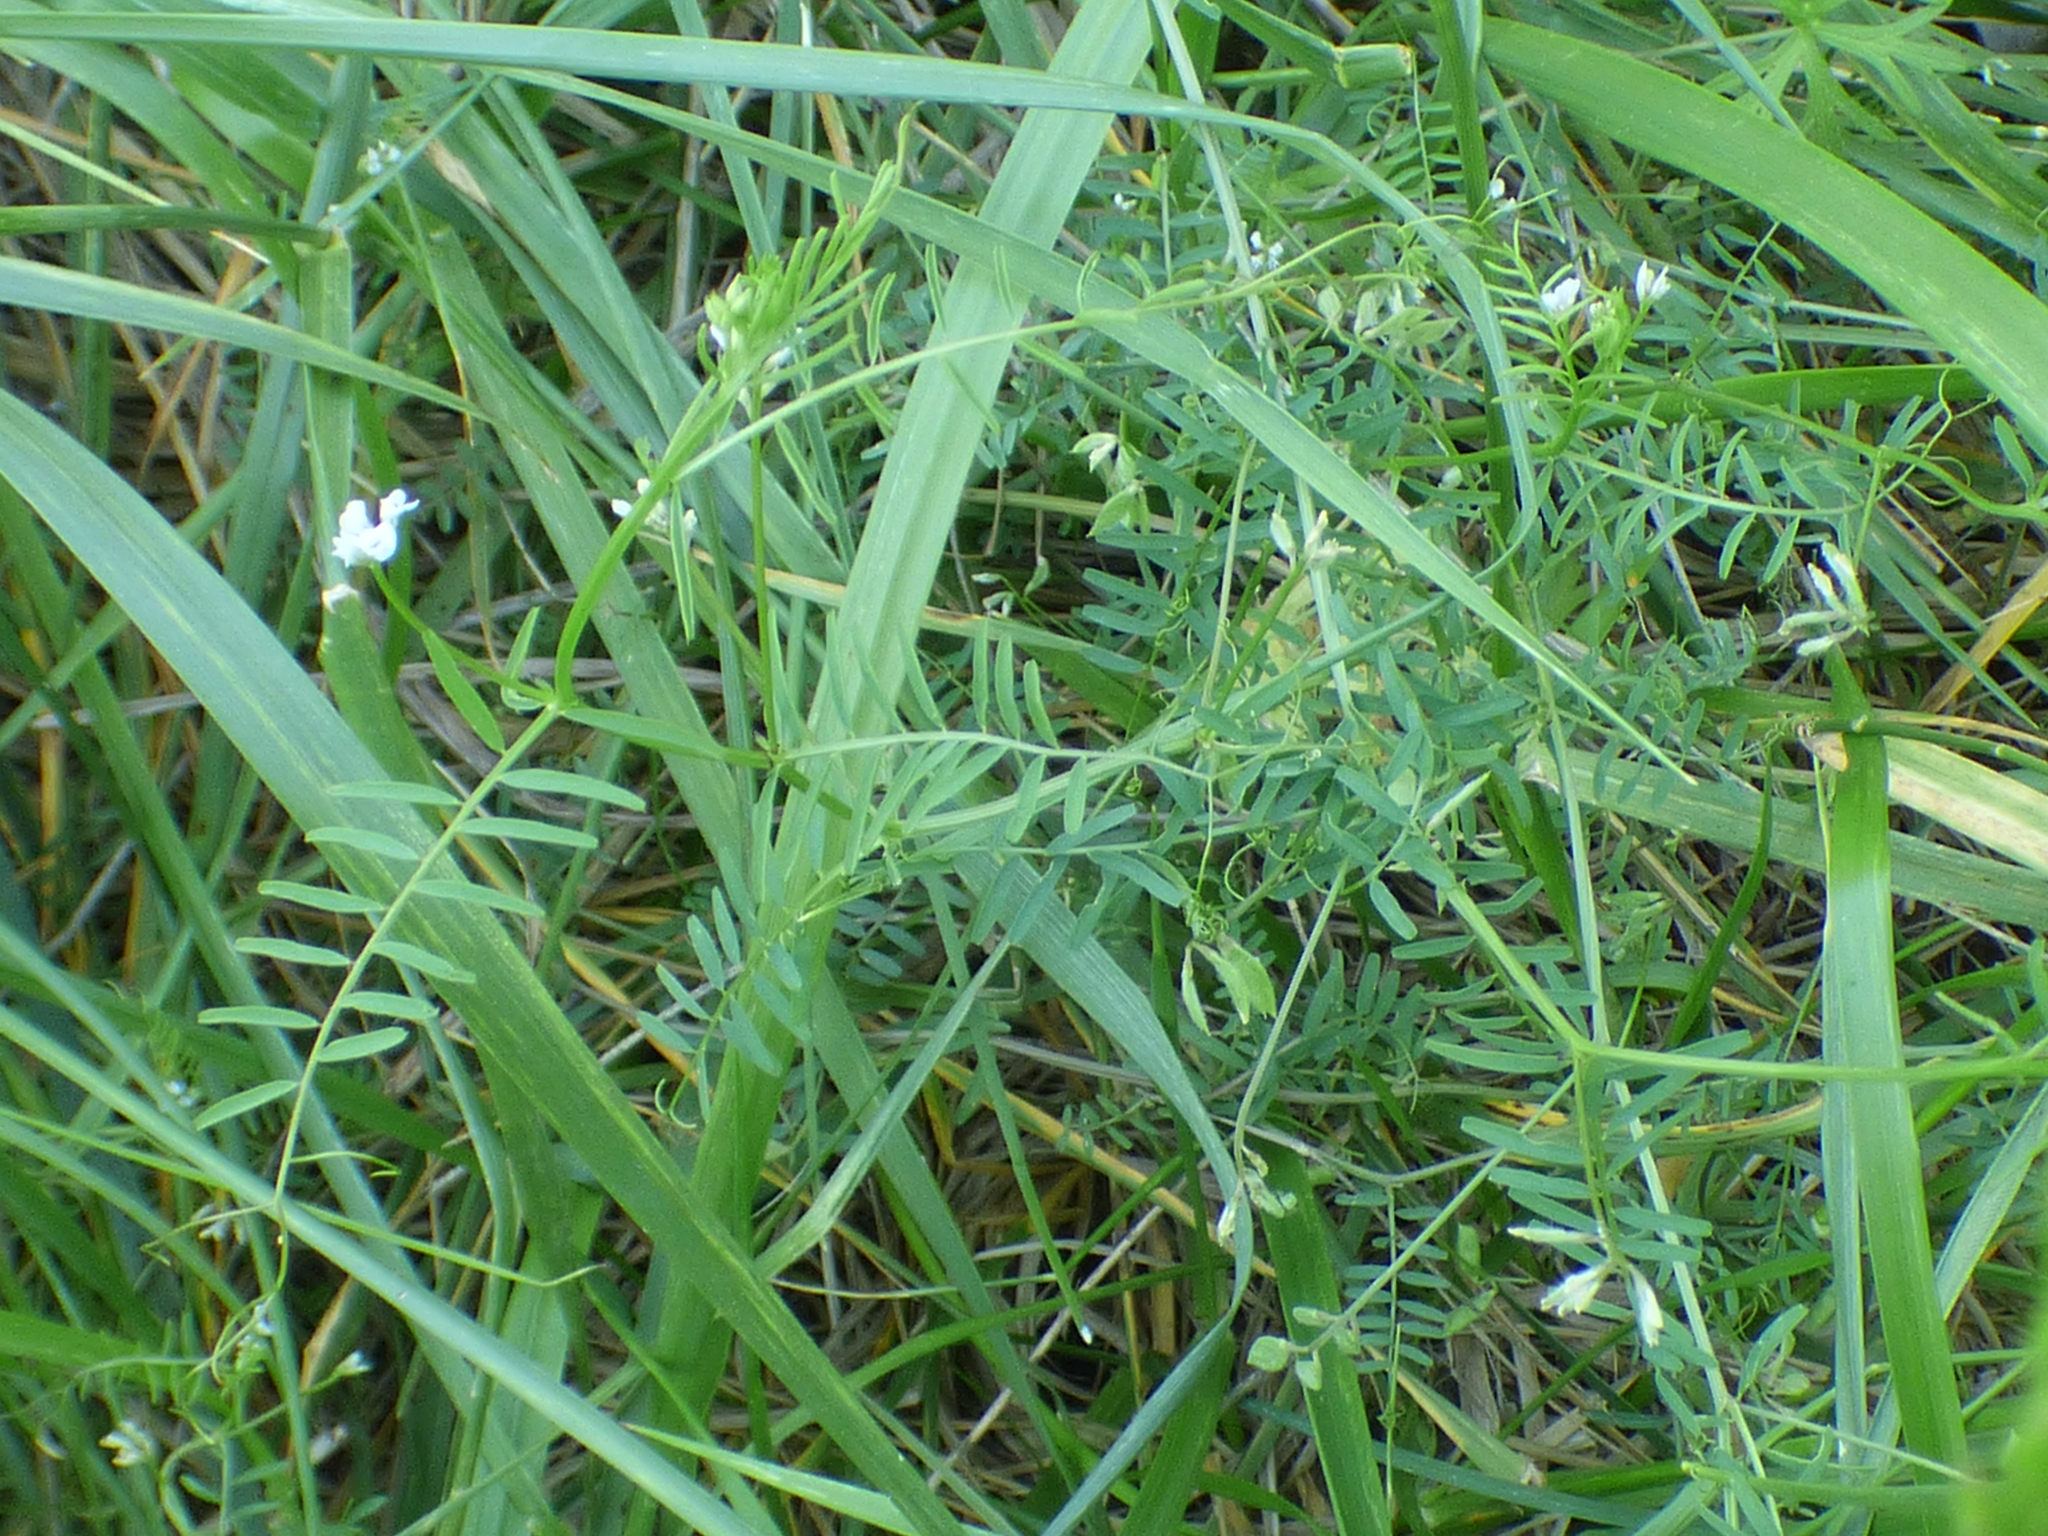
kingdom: Plantae
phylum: Tracheophyta
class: Magnoliopsida
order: Fabales
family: Fabaceae
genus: Vicia
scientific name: Vicia hirsuta
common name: Tiny vetch
